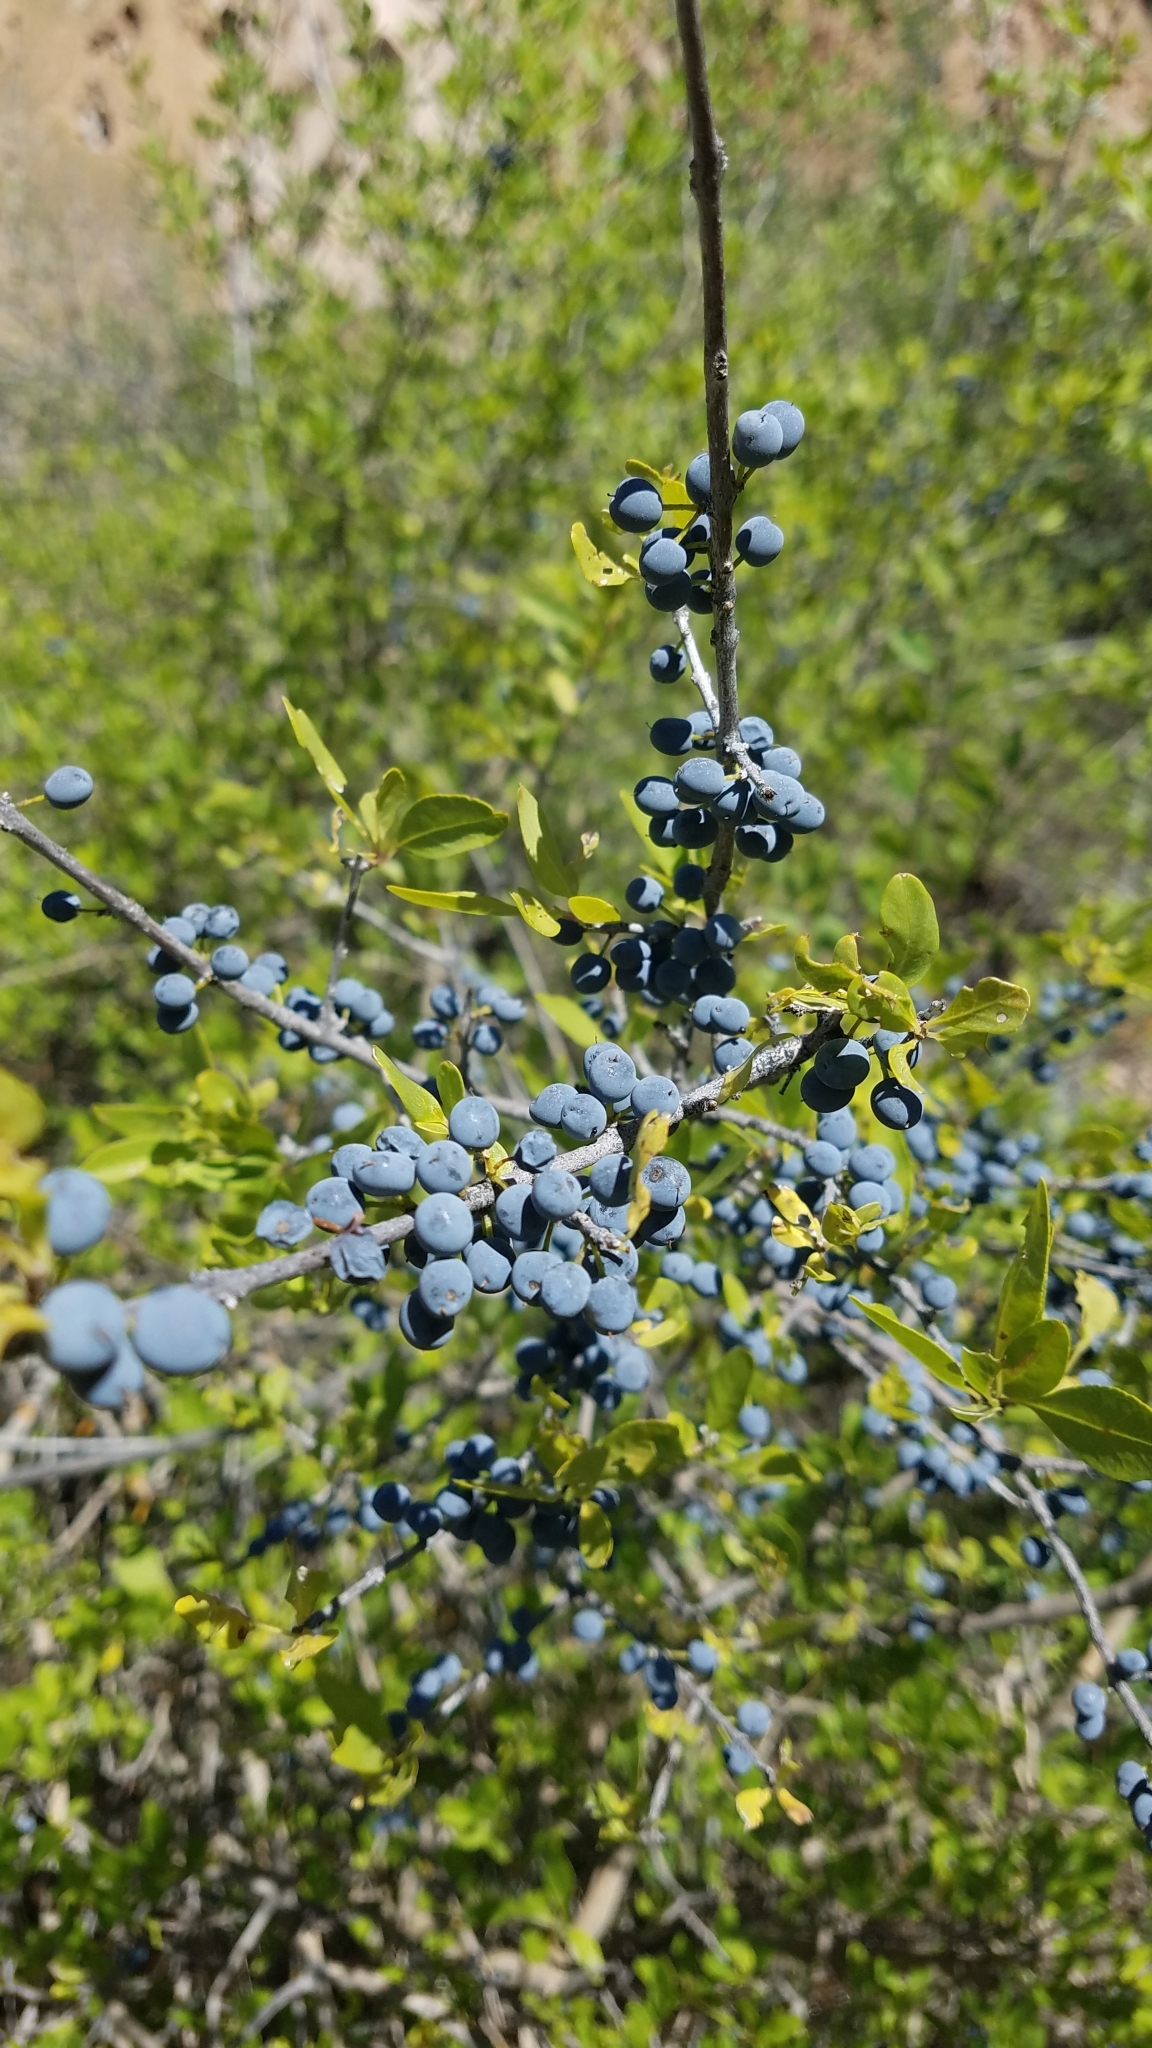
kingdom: Plantae
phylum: Tracheophyta
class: Magnoliopsida
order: Lamiales
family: Oleaceae
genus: Forestiera
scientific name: Forestiera pubescens
